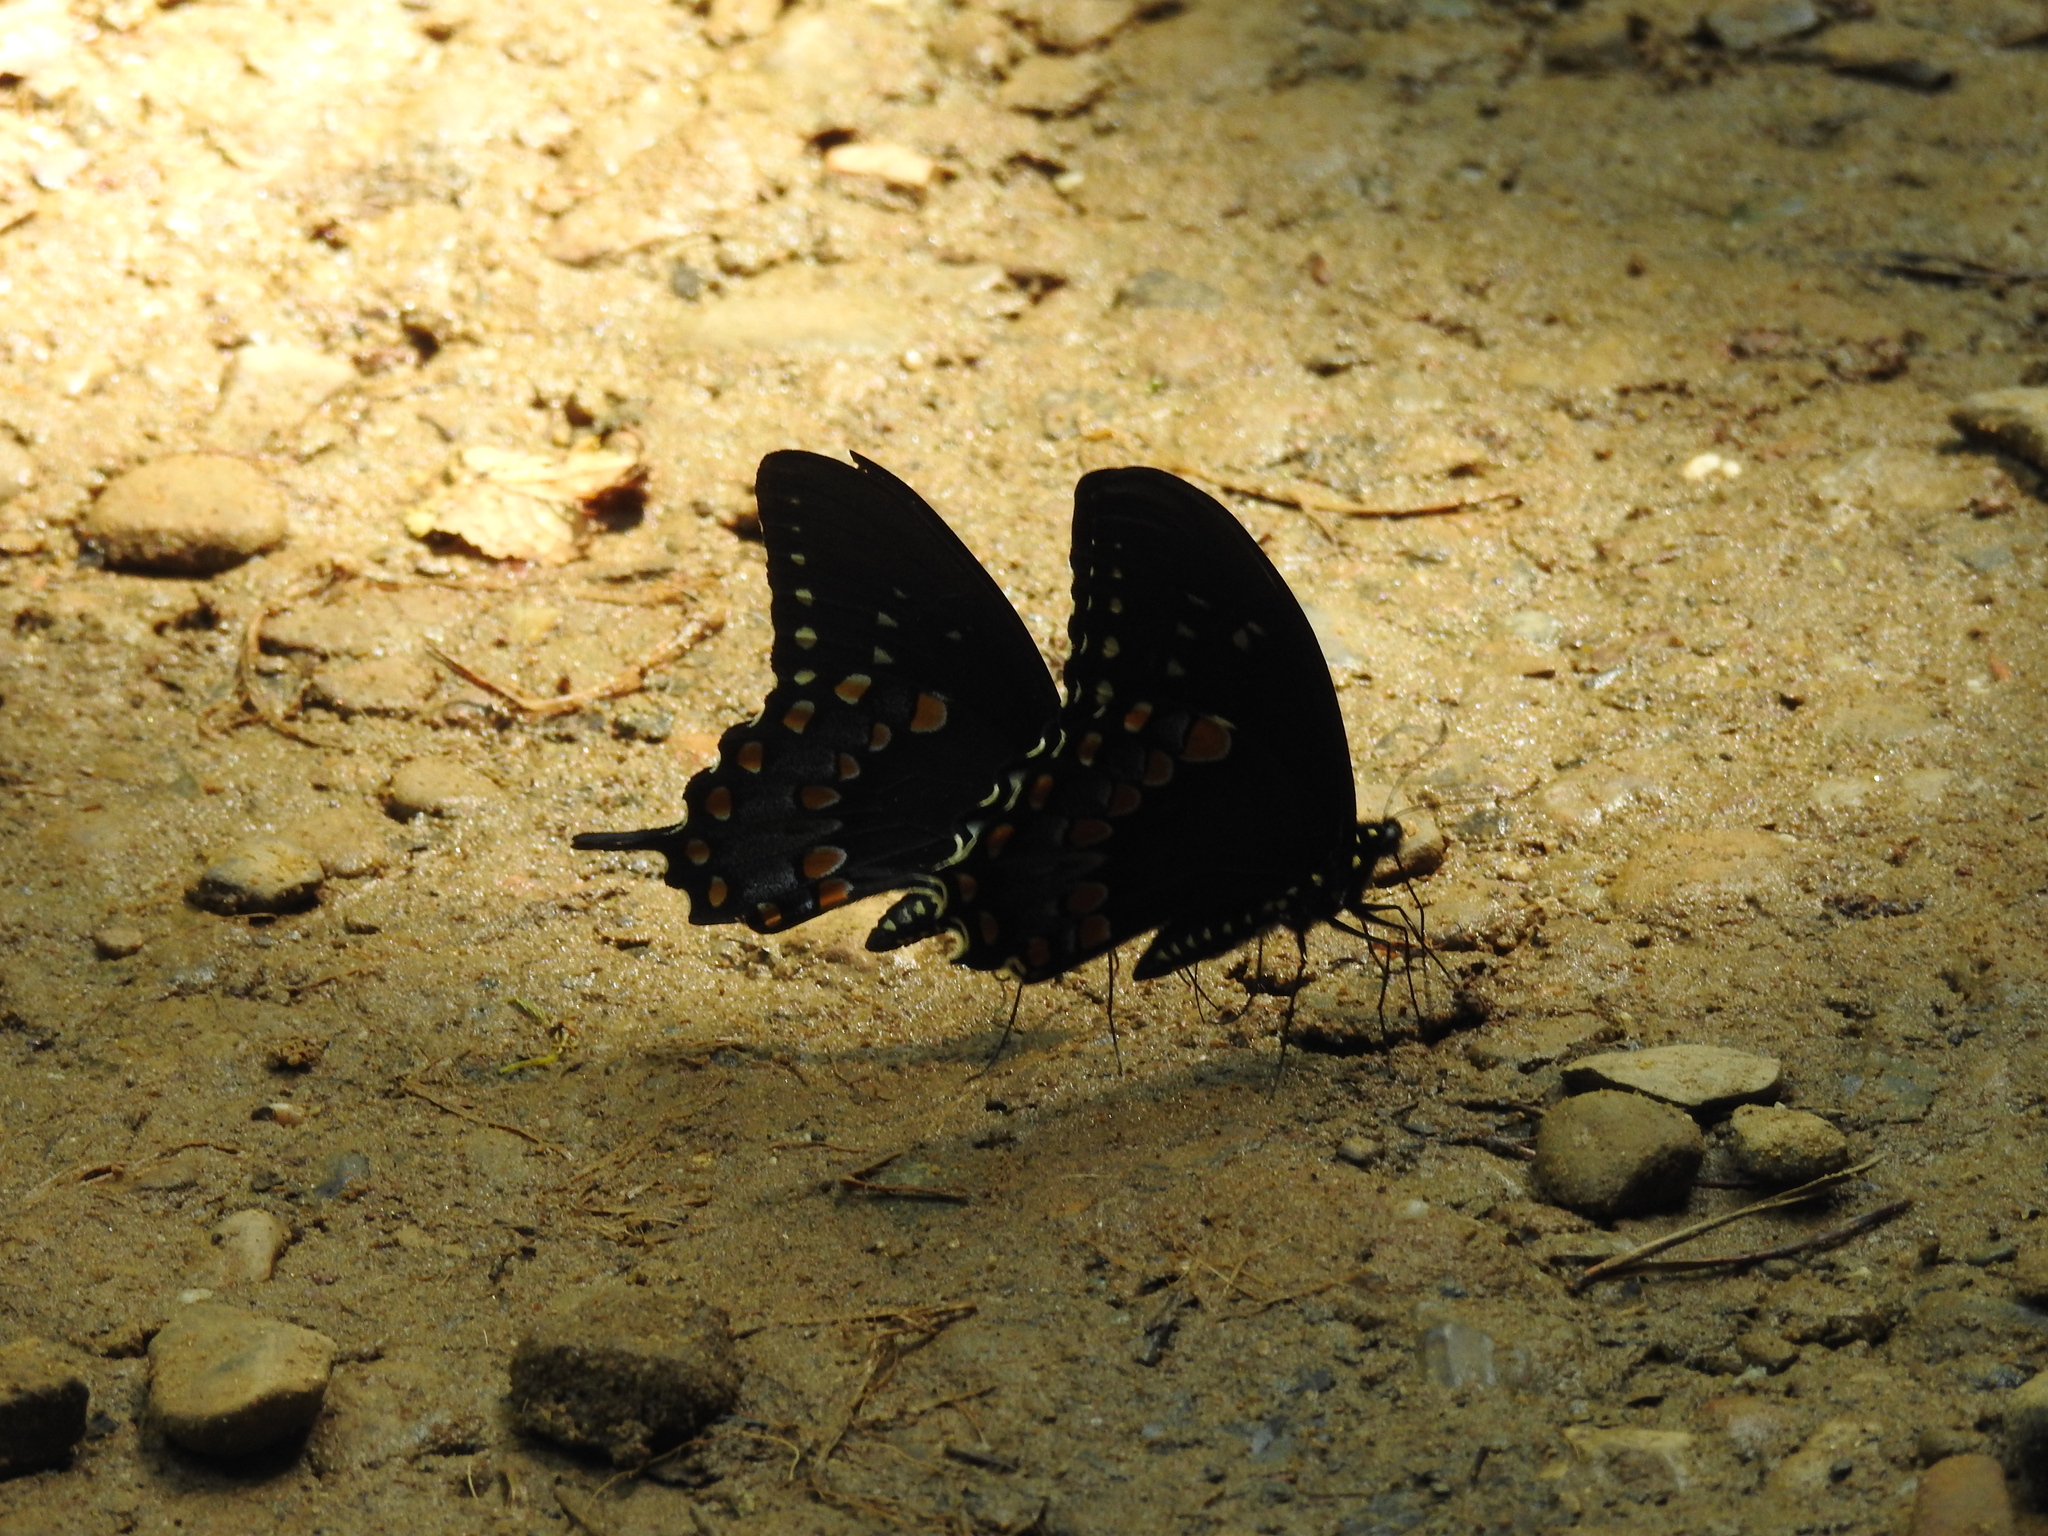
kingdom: Animalia
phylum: Arthropoda
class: Insecta
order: Lepidoptera
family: Papilionidae
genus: Papilio
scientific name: Papilio troilus
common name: Spicebush swallowtail
